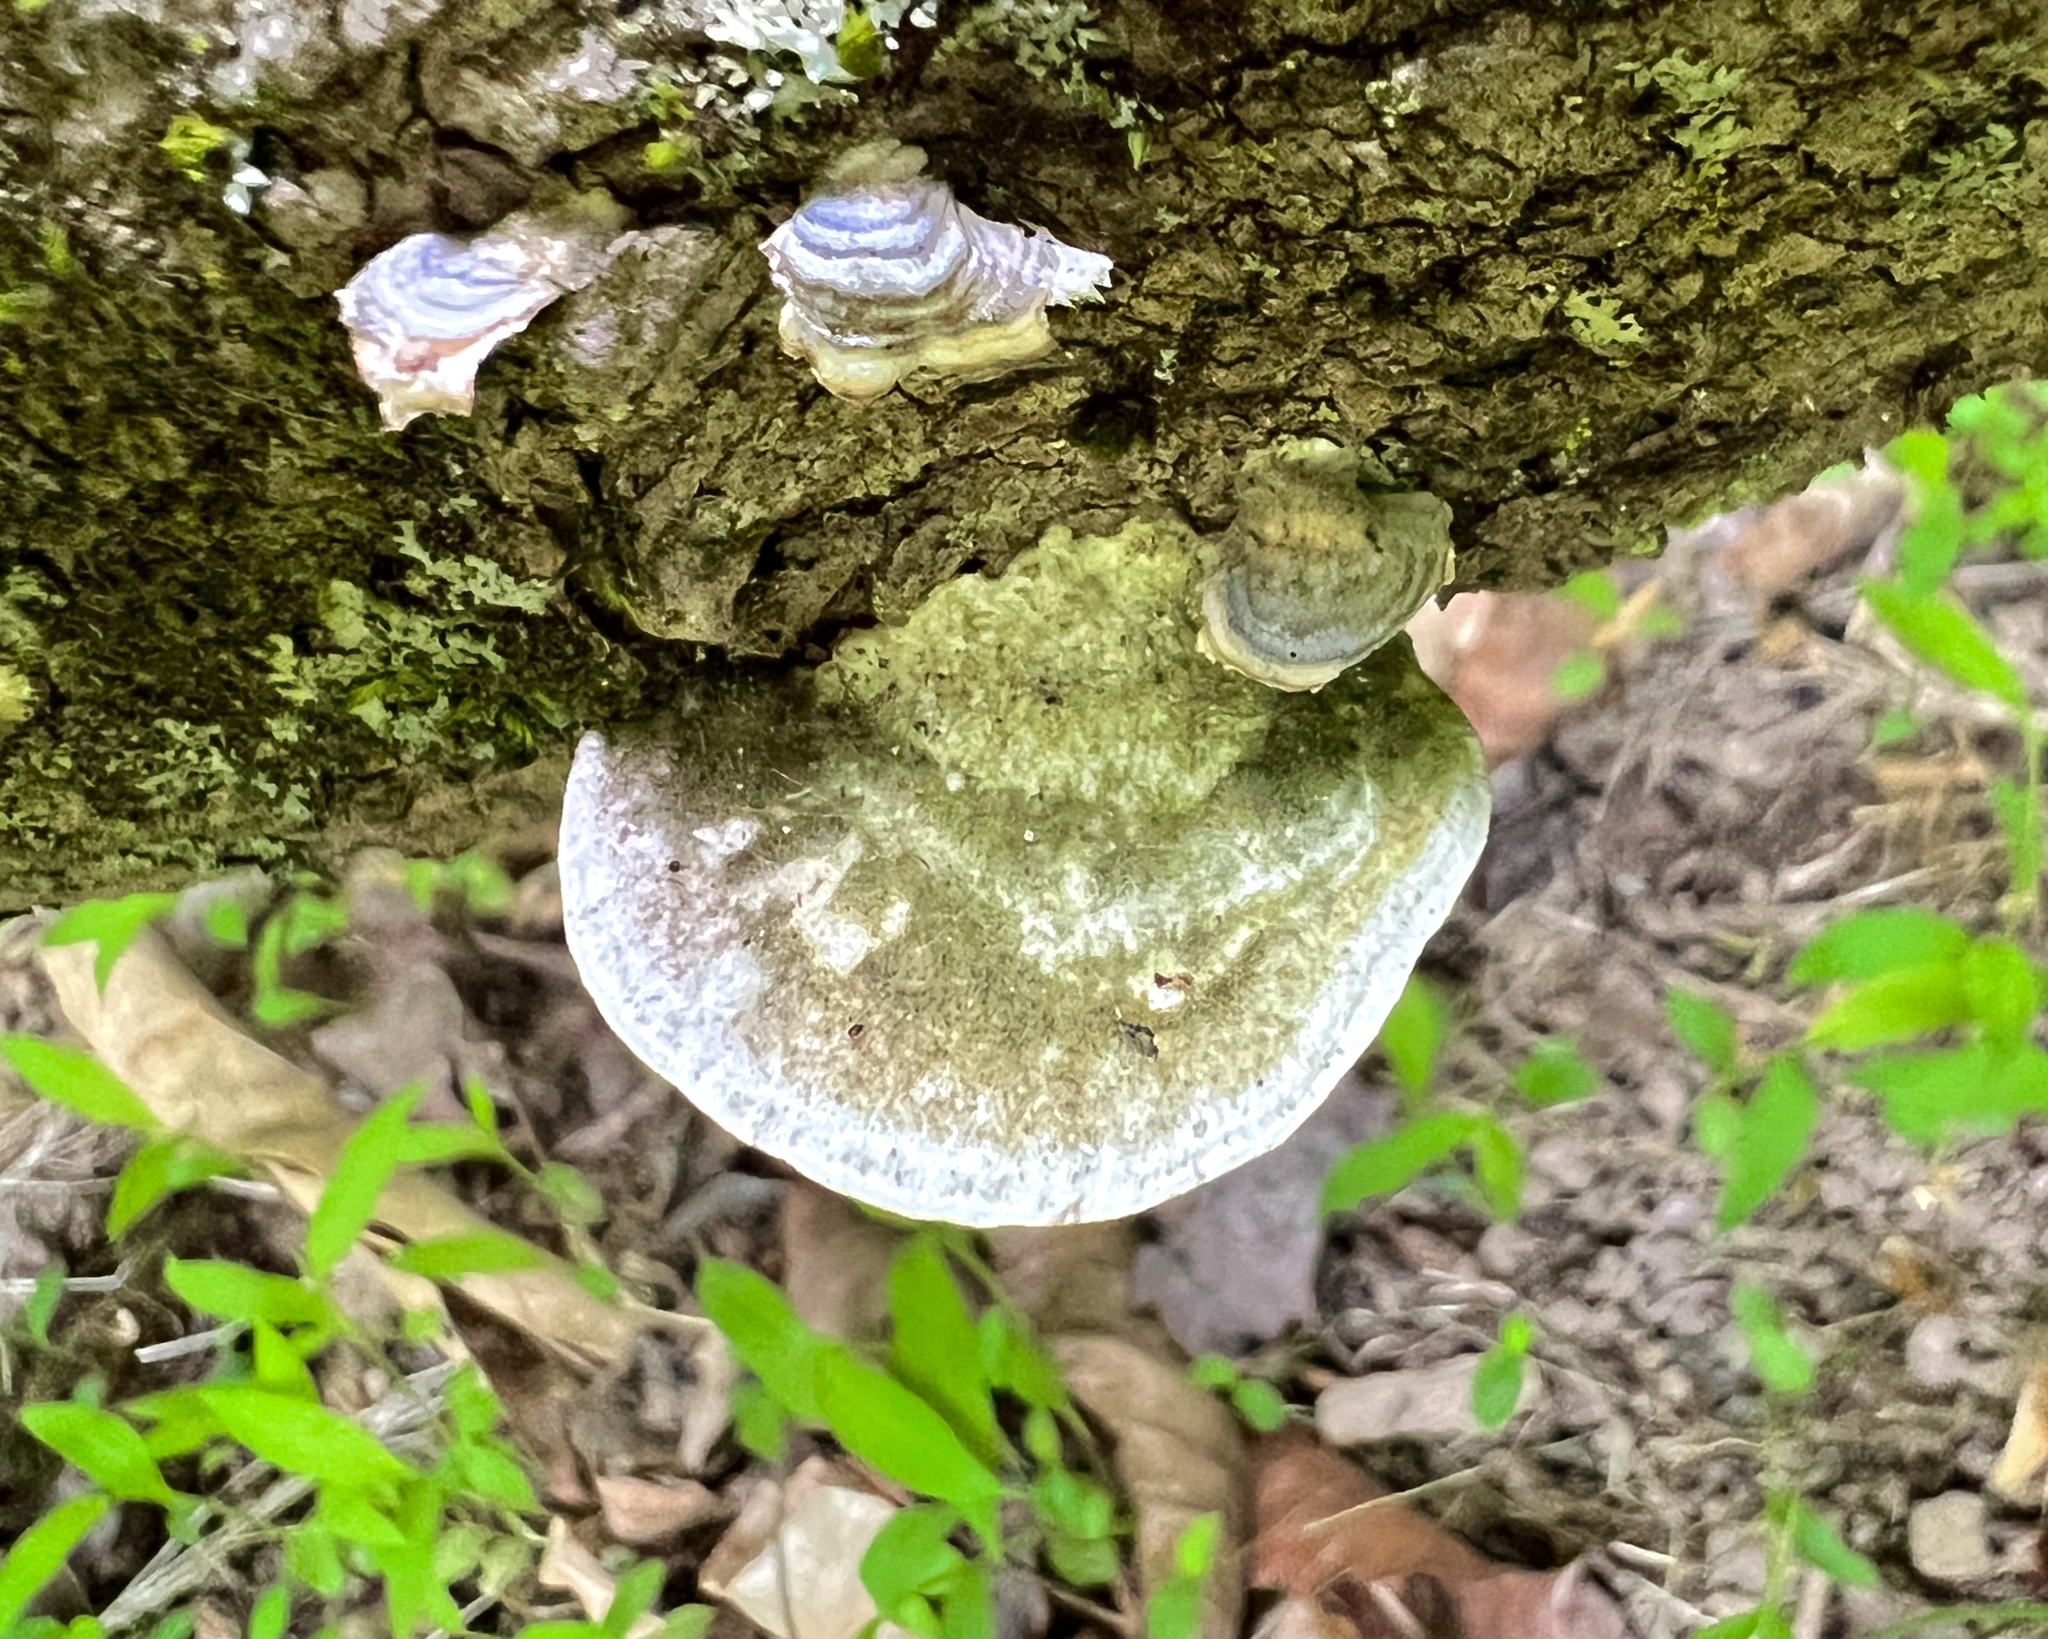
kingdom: Fungi
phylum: Basidiomycota
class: Agaricomycetes
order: Polyporales
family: Polyporaceae
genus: Trametes
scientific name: Trametes gibbosa
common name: Lumpy bracket
